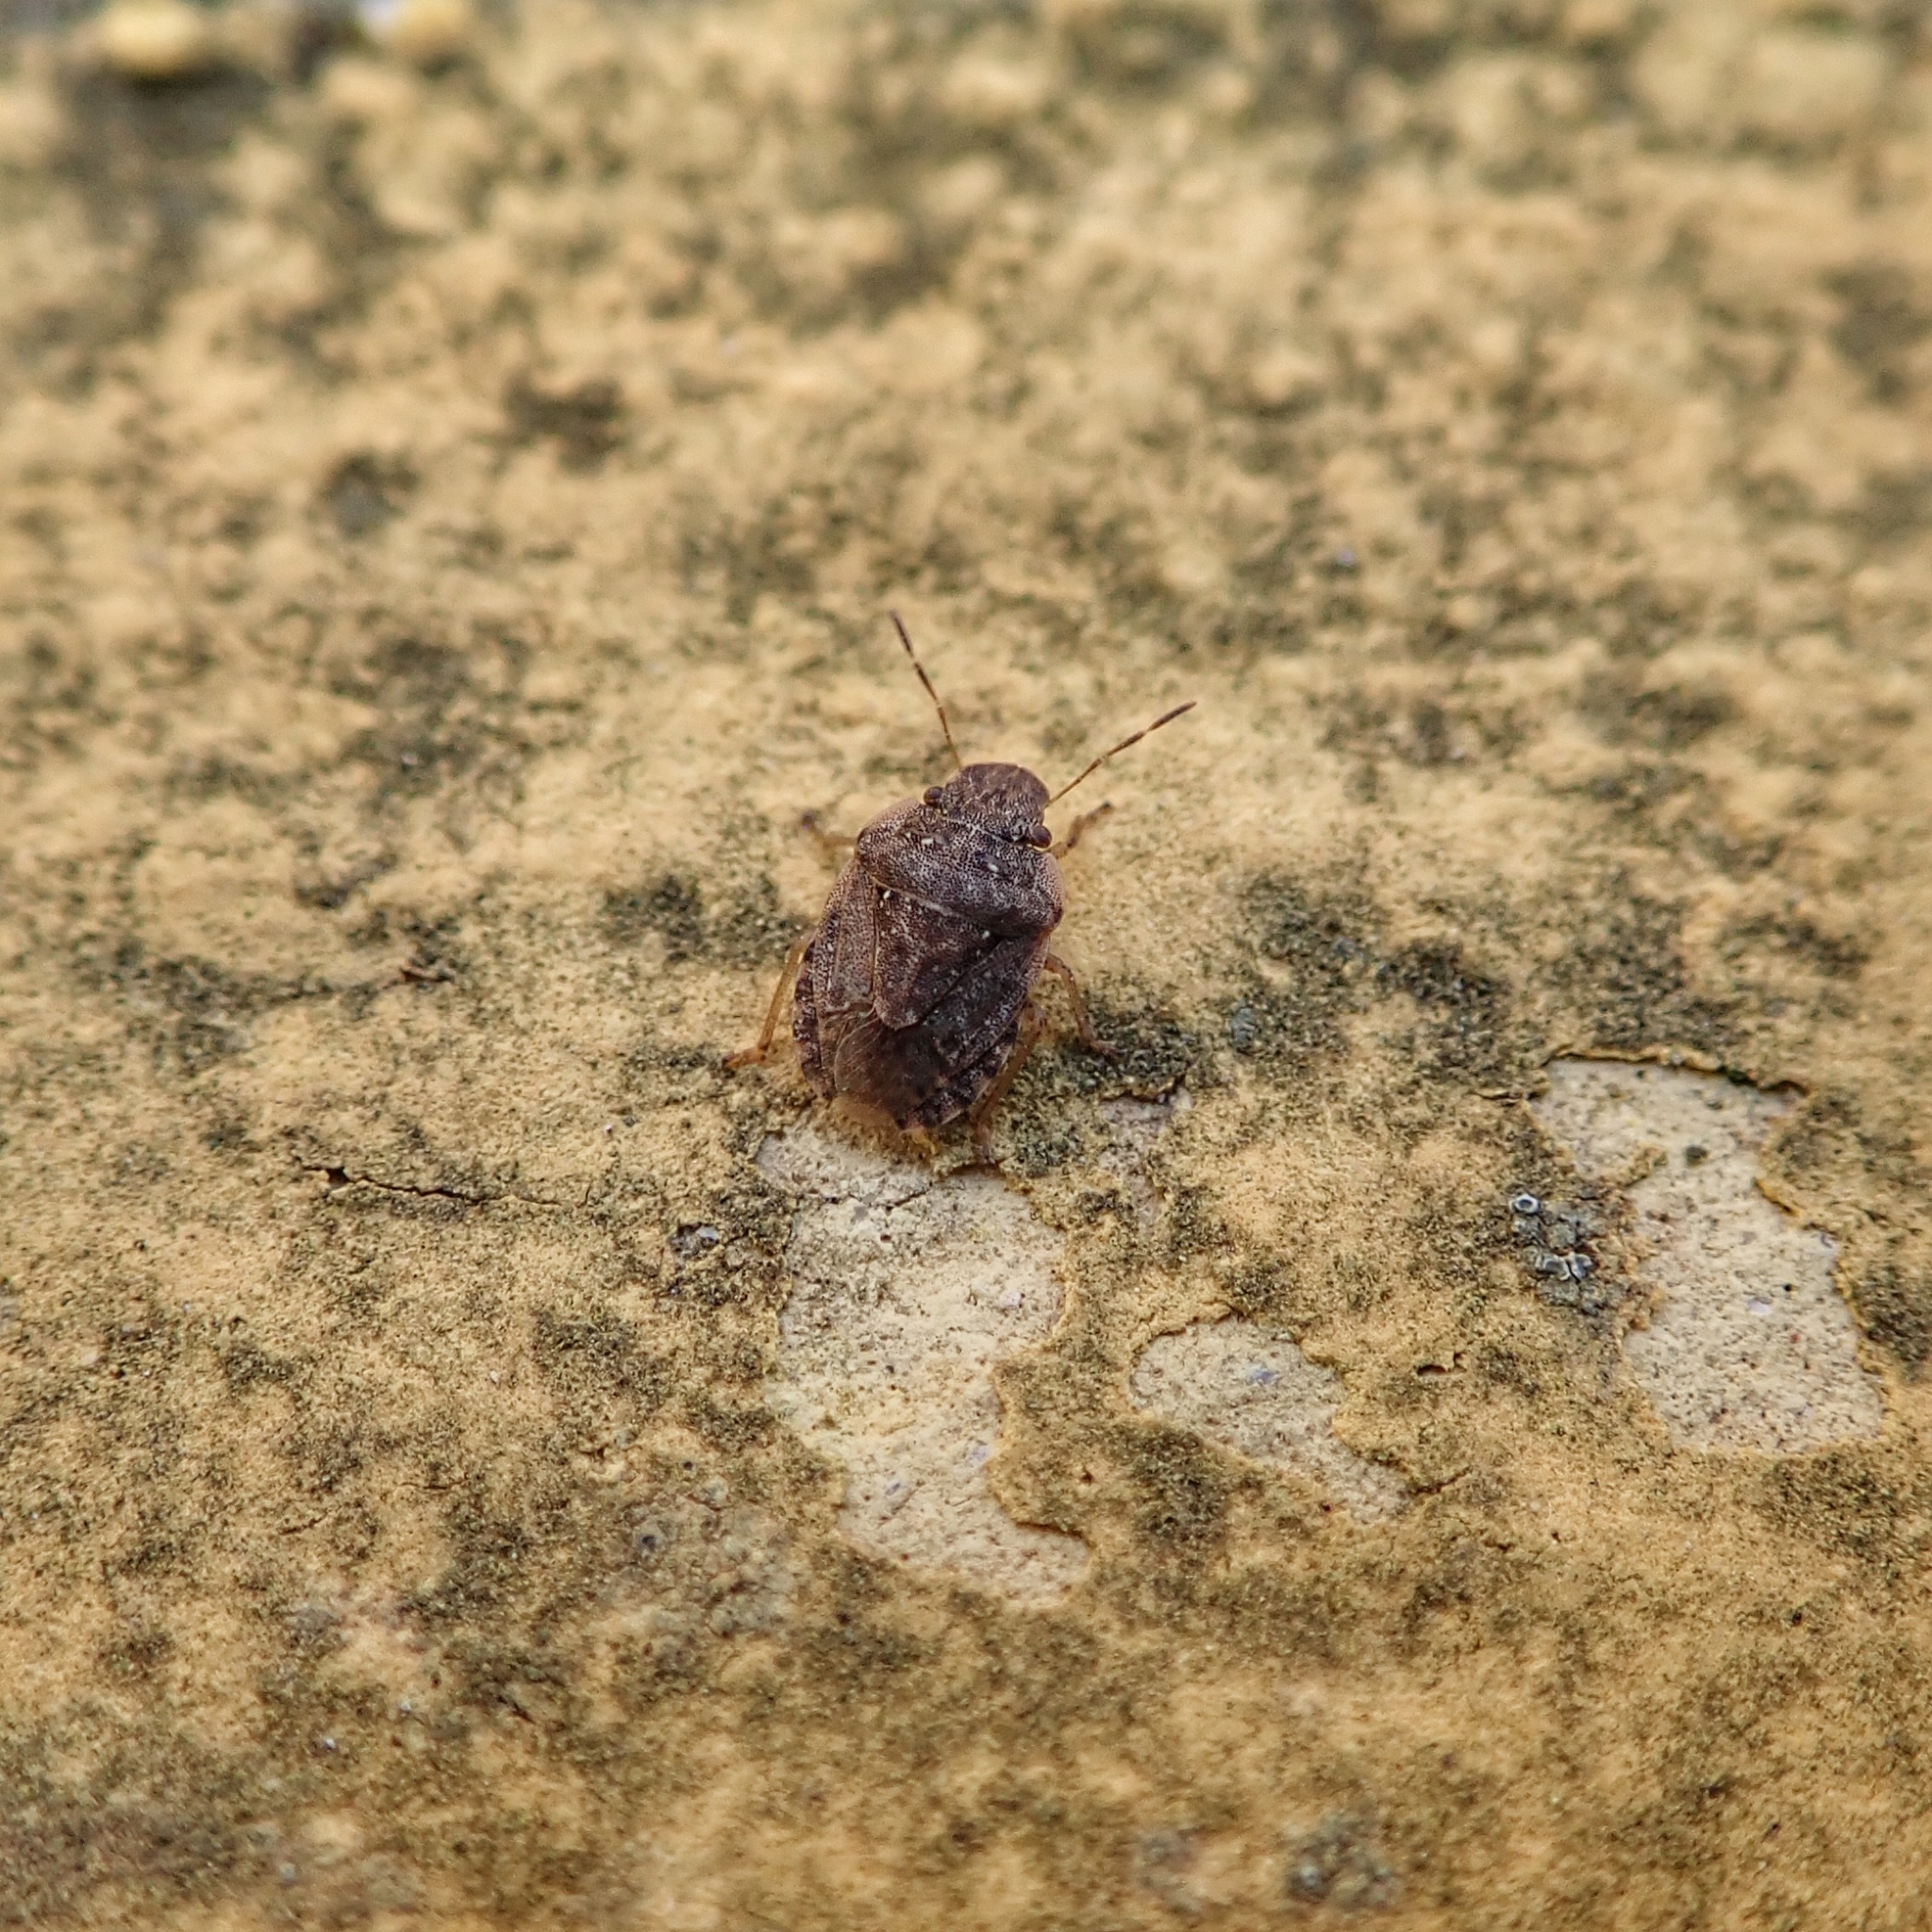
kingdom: Animalia
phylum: Arthropoda
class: Insecta
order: Hemiptera
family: Pentatomidae
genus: Sciocoris
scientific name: Sciocoris sideritidis
